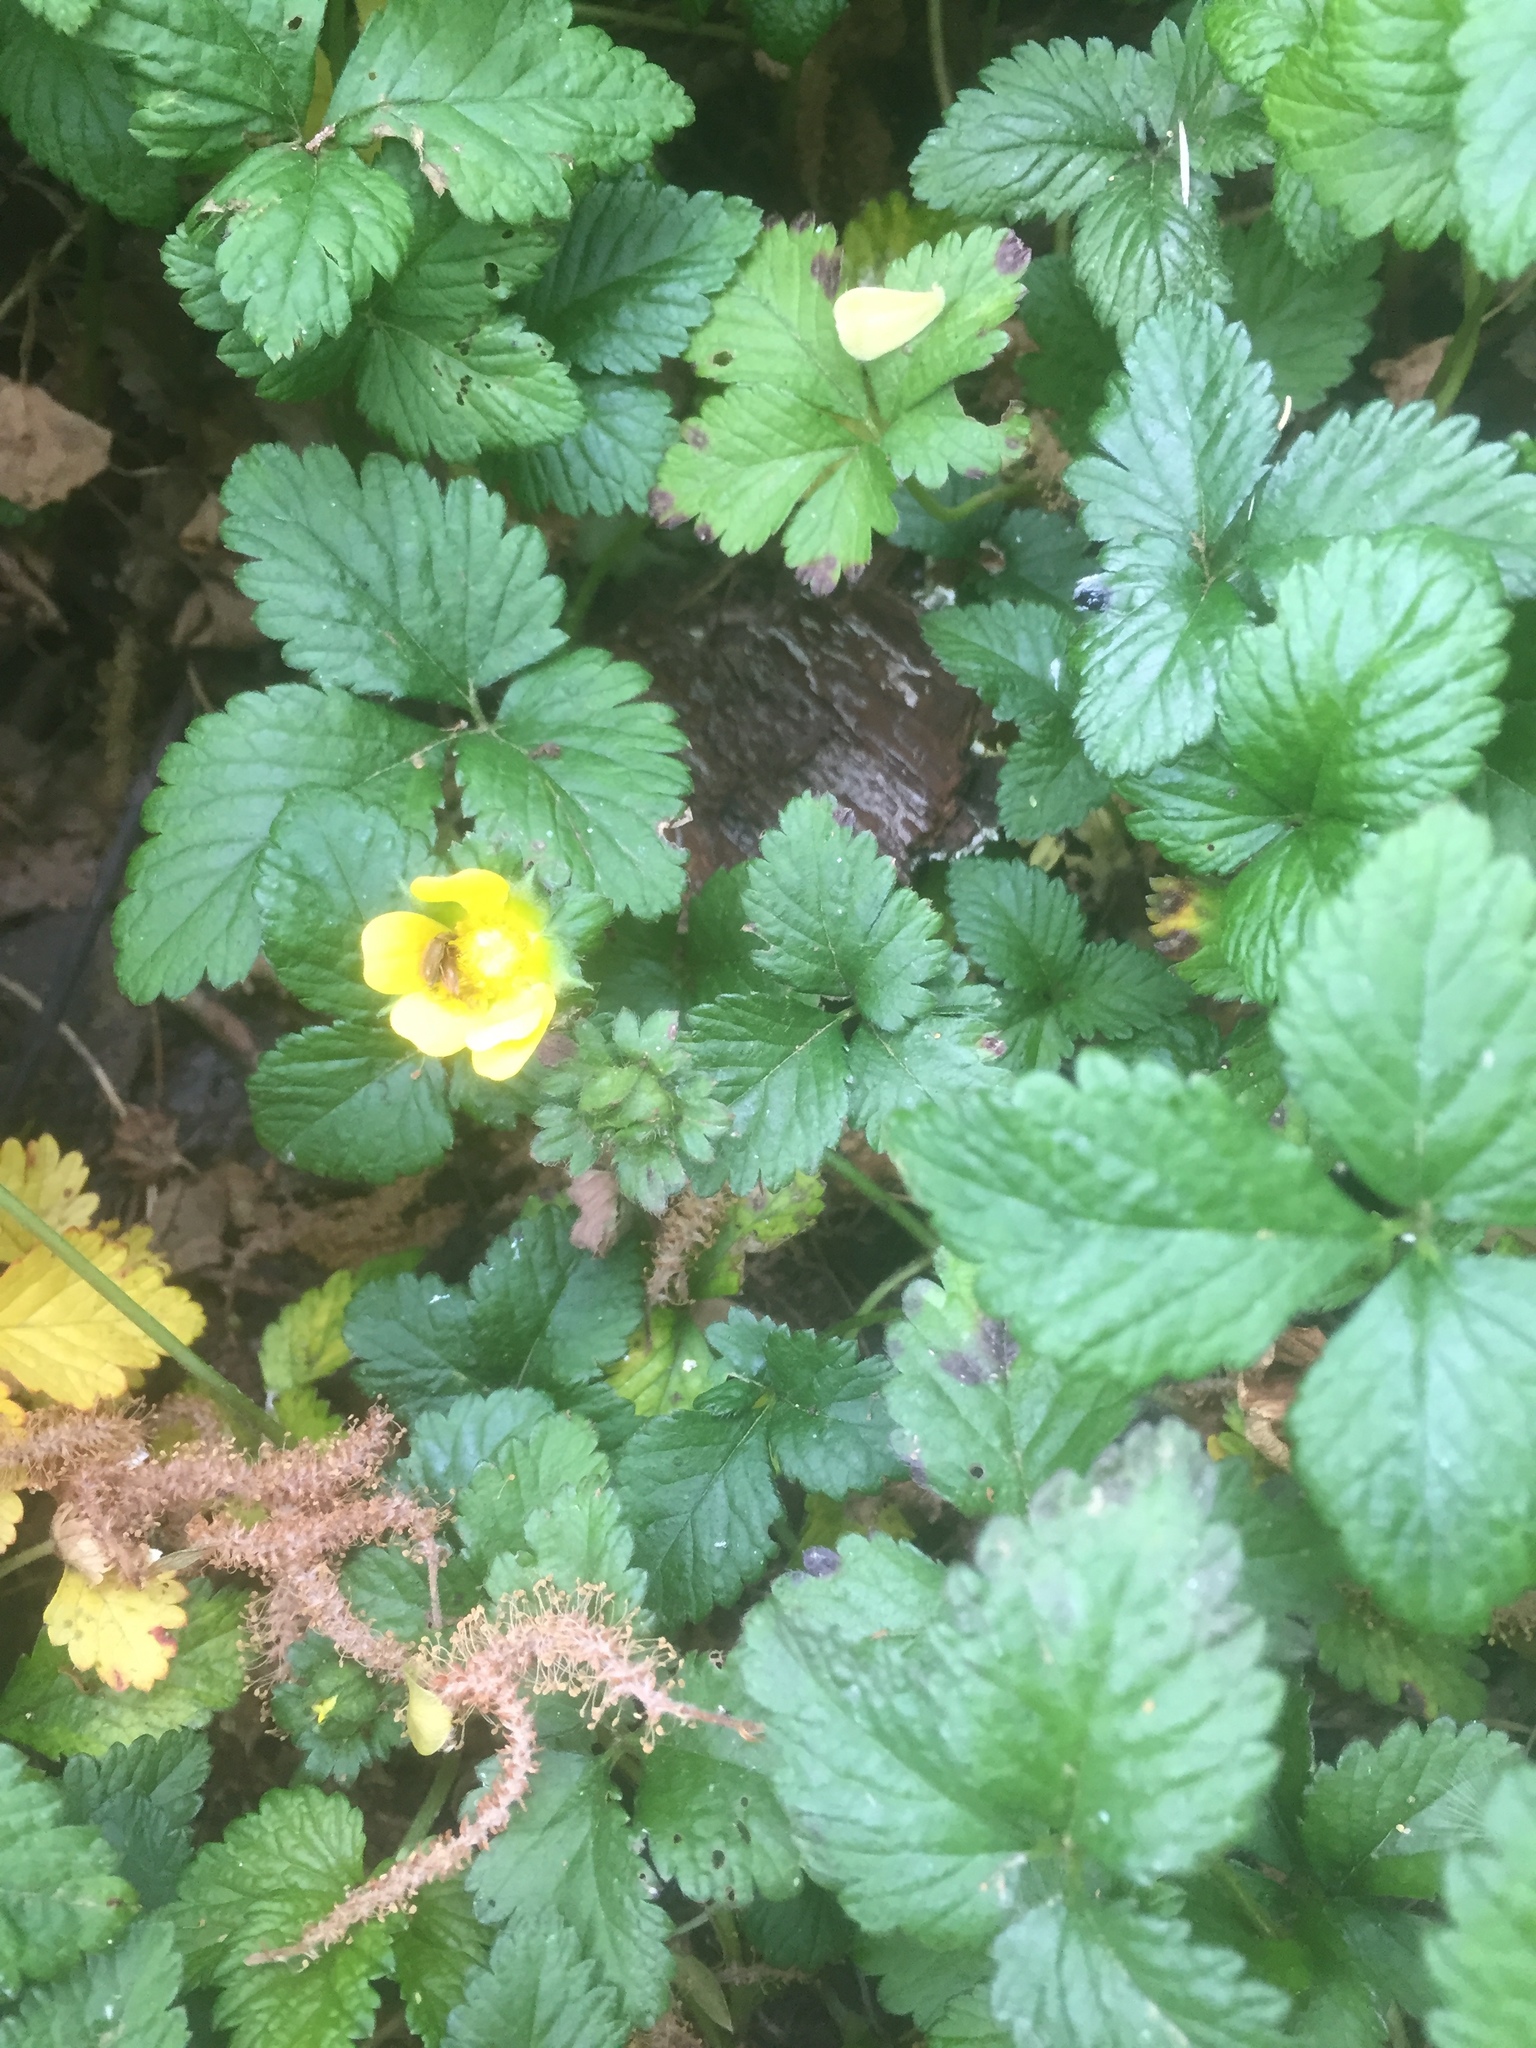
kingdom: Plantae
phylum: Tracheophyta
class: Magnoliopsida
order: Rosales
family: Rosaceae
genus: Potentilla
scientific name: Potentilla indica
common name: Yellow-flowered strawberry
